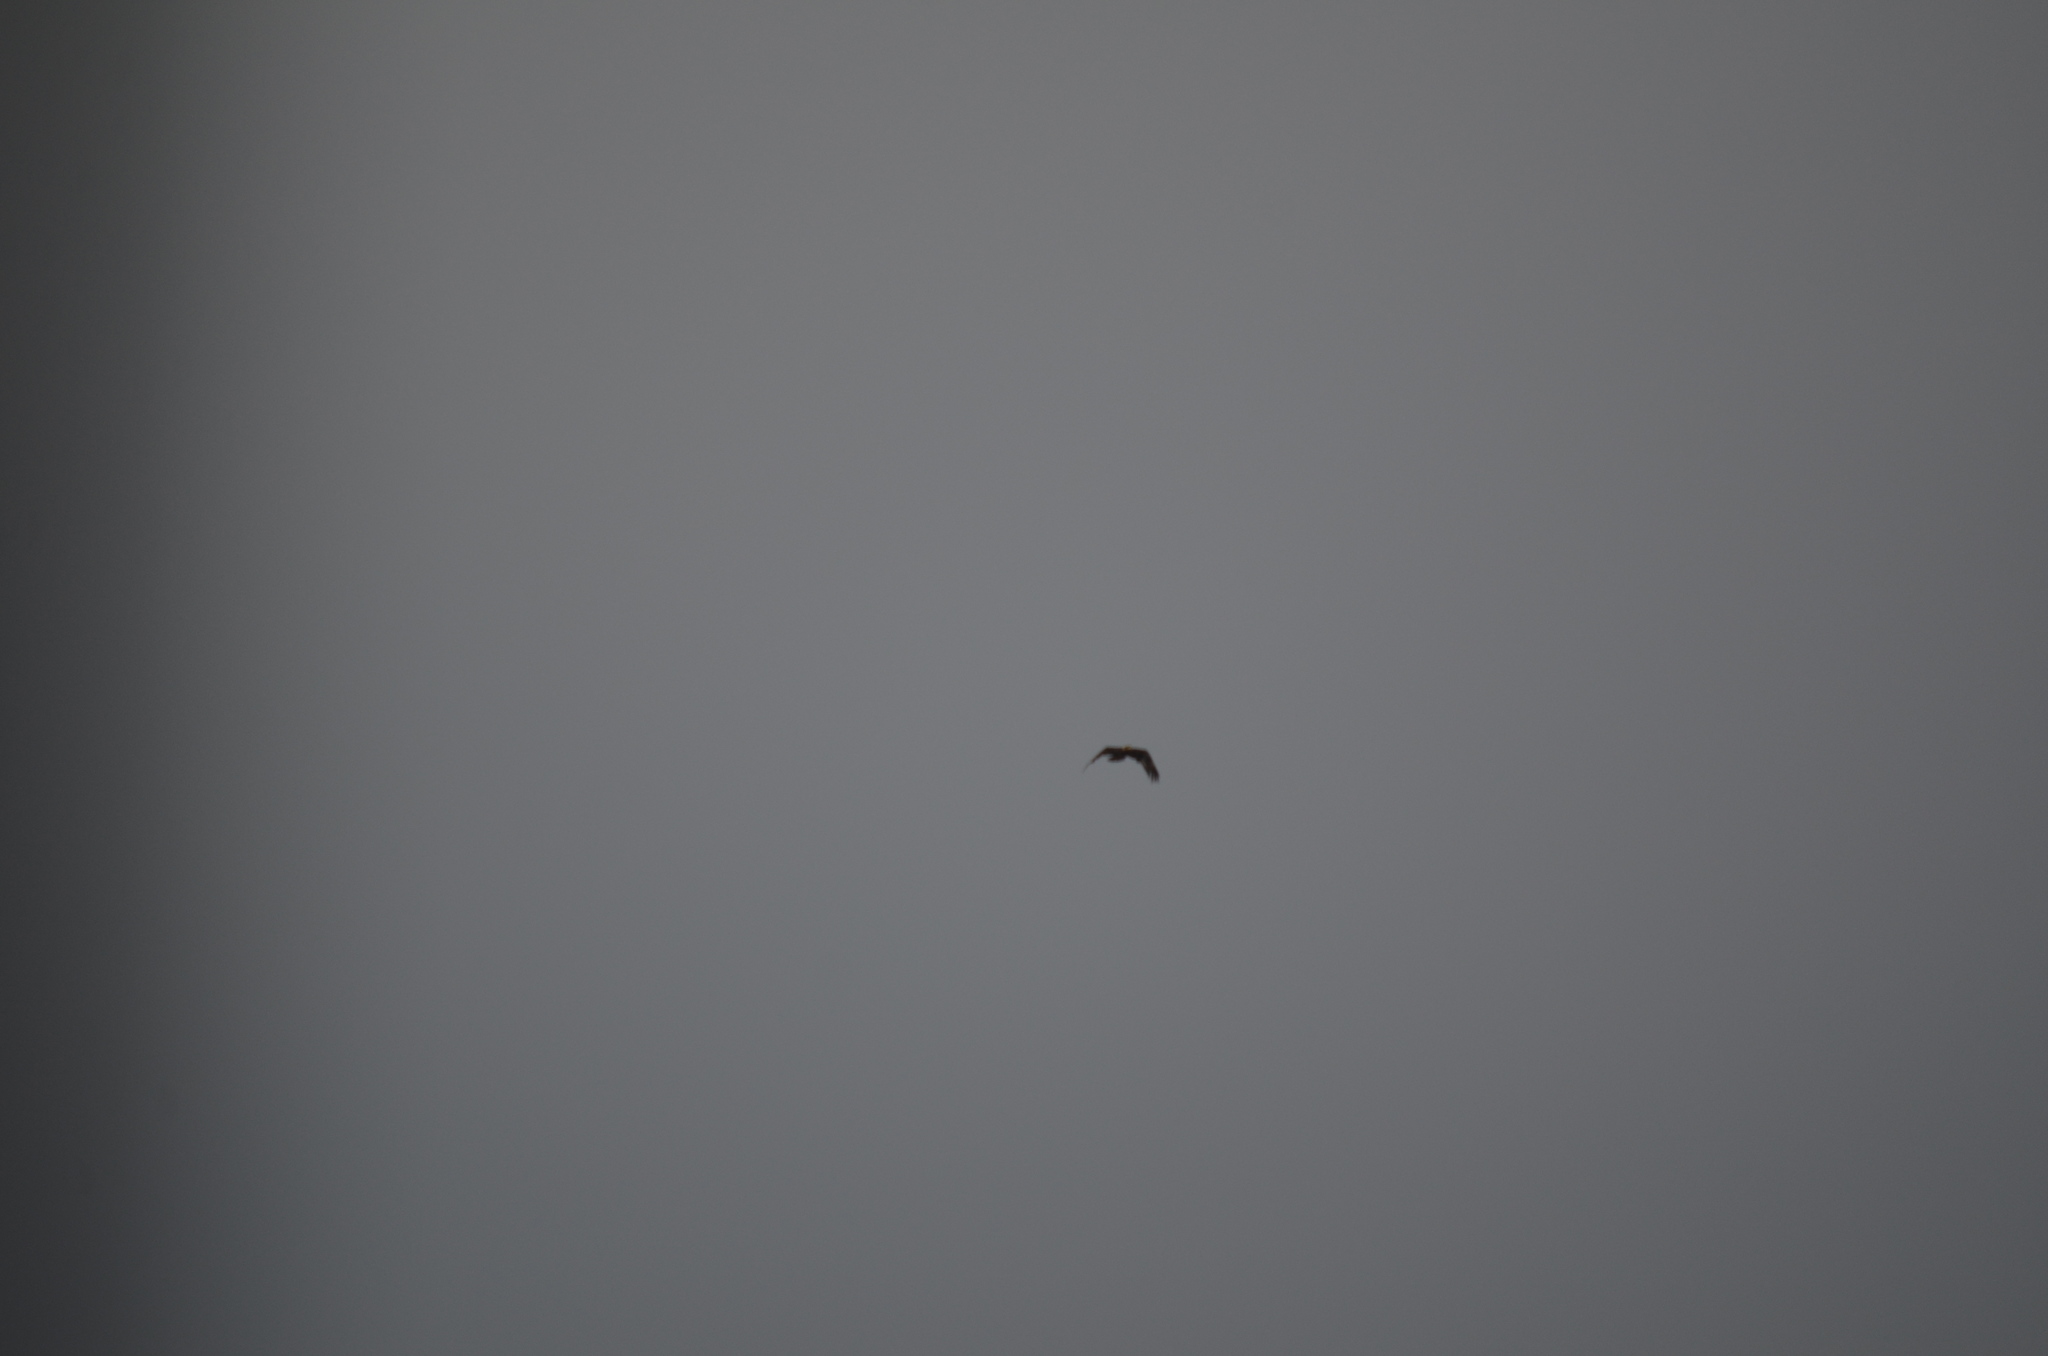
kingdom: Animalia
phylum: Chordata
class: Aves
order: Accipitriformes
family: Accipitridae
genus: Haliaeetus
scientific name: Haliaeetus leucocephalus
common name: Bald eagle
